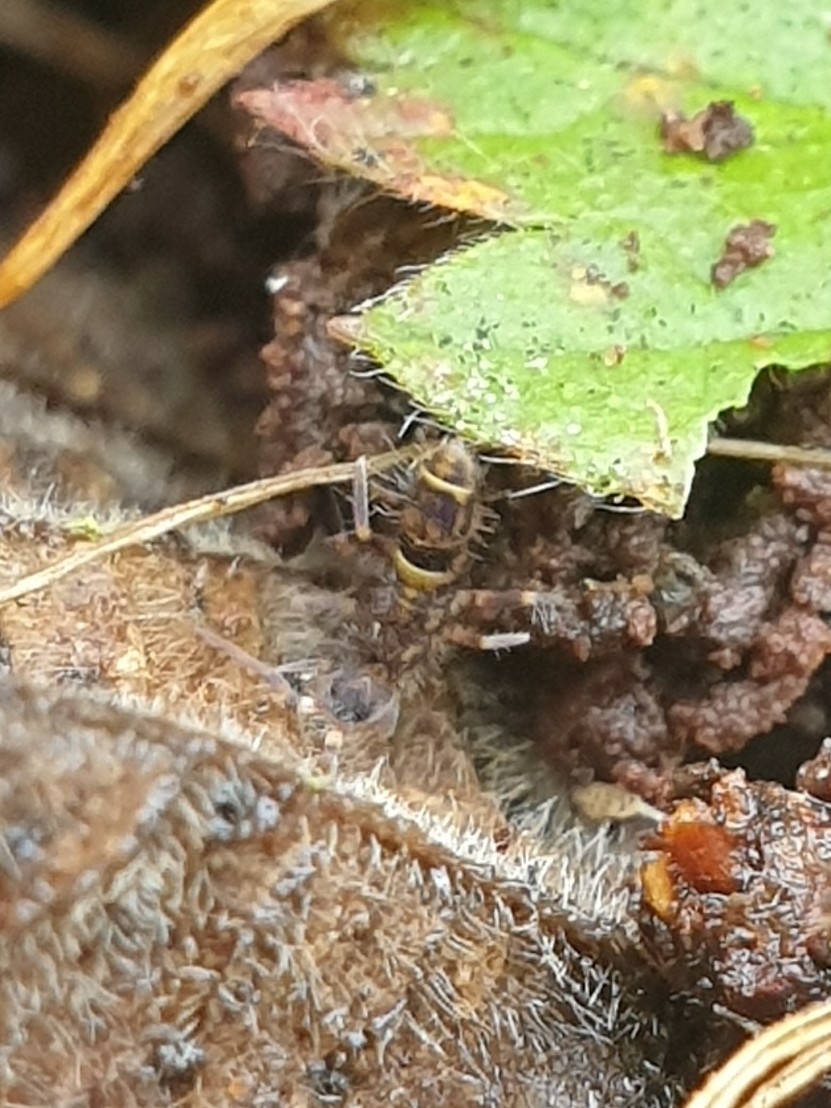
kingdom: Animalia
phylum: Arthropoda
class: Collembola
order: Entomobryomorpha
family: Orchesellidae
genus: Orchesella
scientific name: Orchesella cincta
